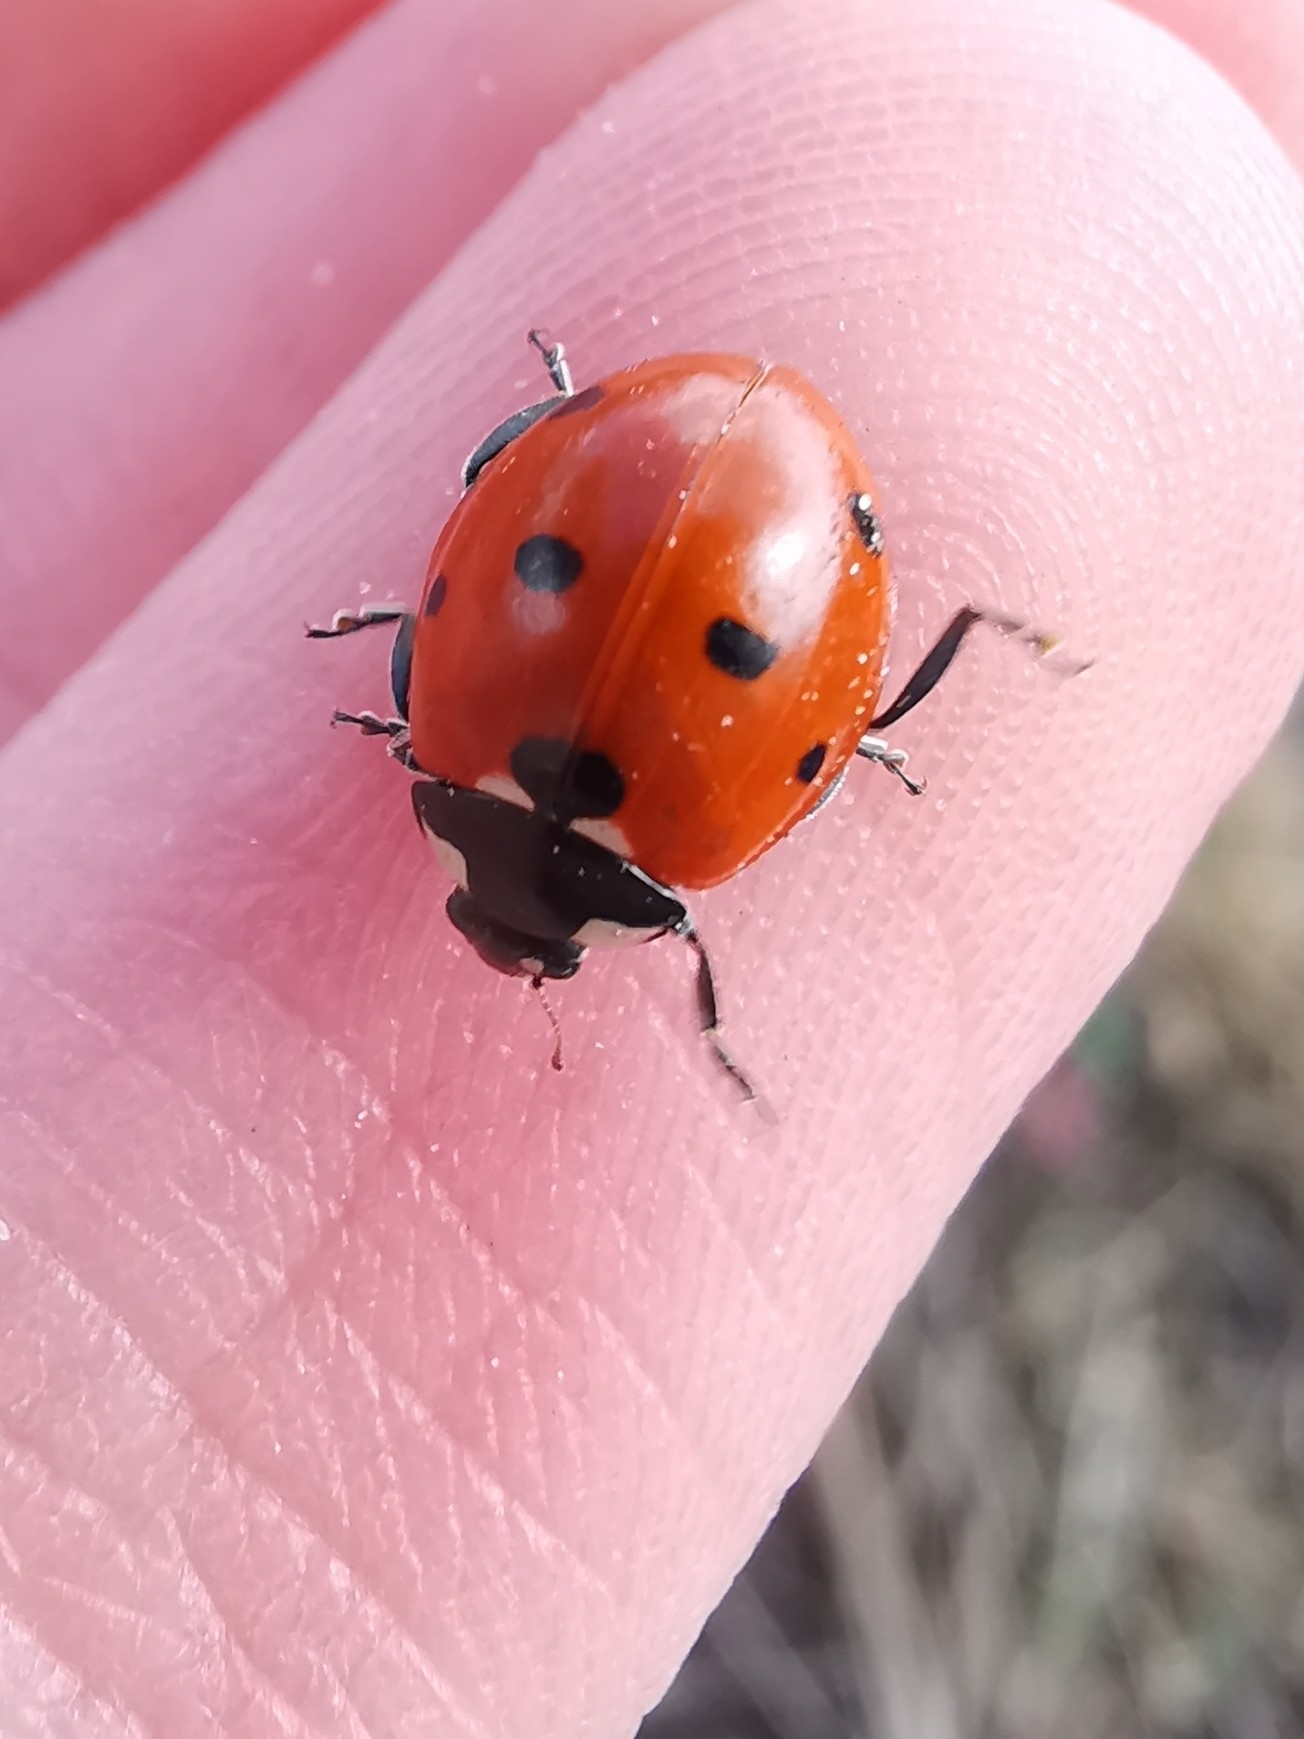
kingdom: Animalia
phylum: Arthropoda
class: Insecta
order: Coleoptera
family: Coccinellidae
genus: Coccinella
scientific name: Coccinella septempunctata
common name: Sevenspotted lady beetle
